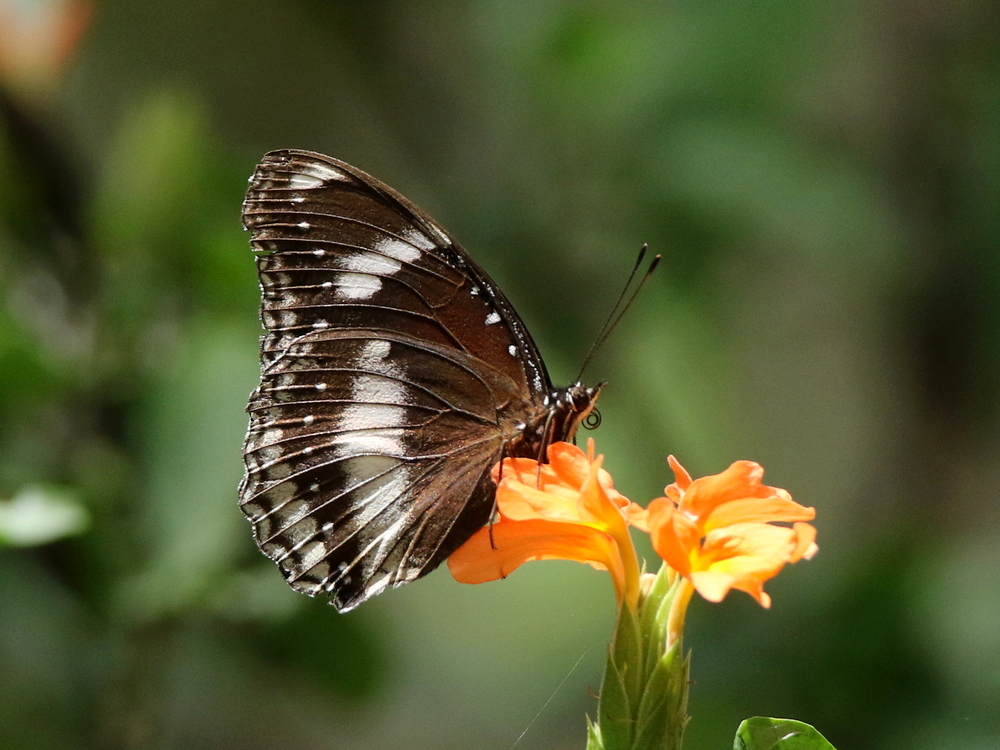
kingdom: Animalia
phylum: Arthropoda
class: Insecta
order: Lepidoptera
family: Nymphalidae
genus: Hypolimnas
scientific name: Hypolimnas bolina
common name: Great eggfly
